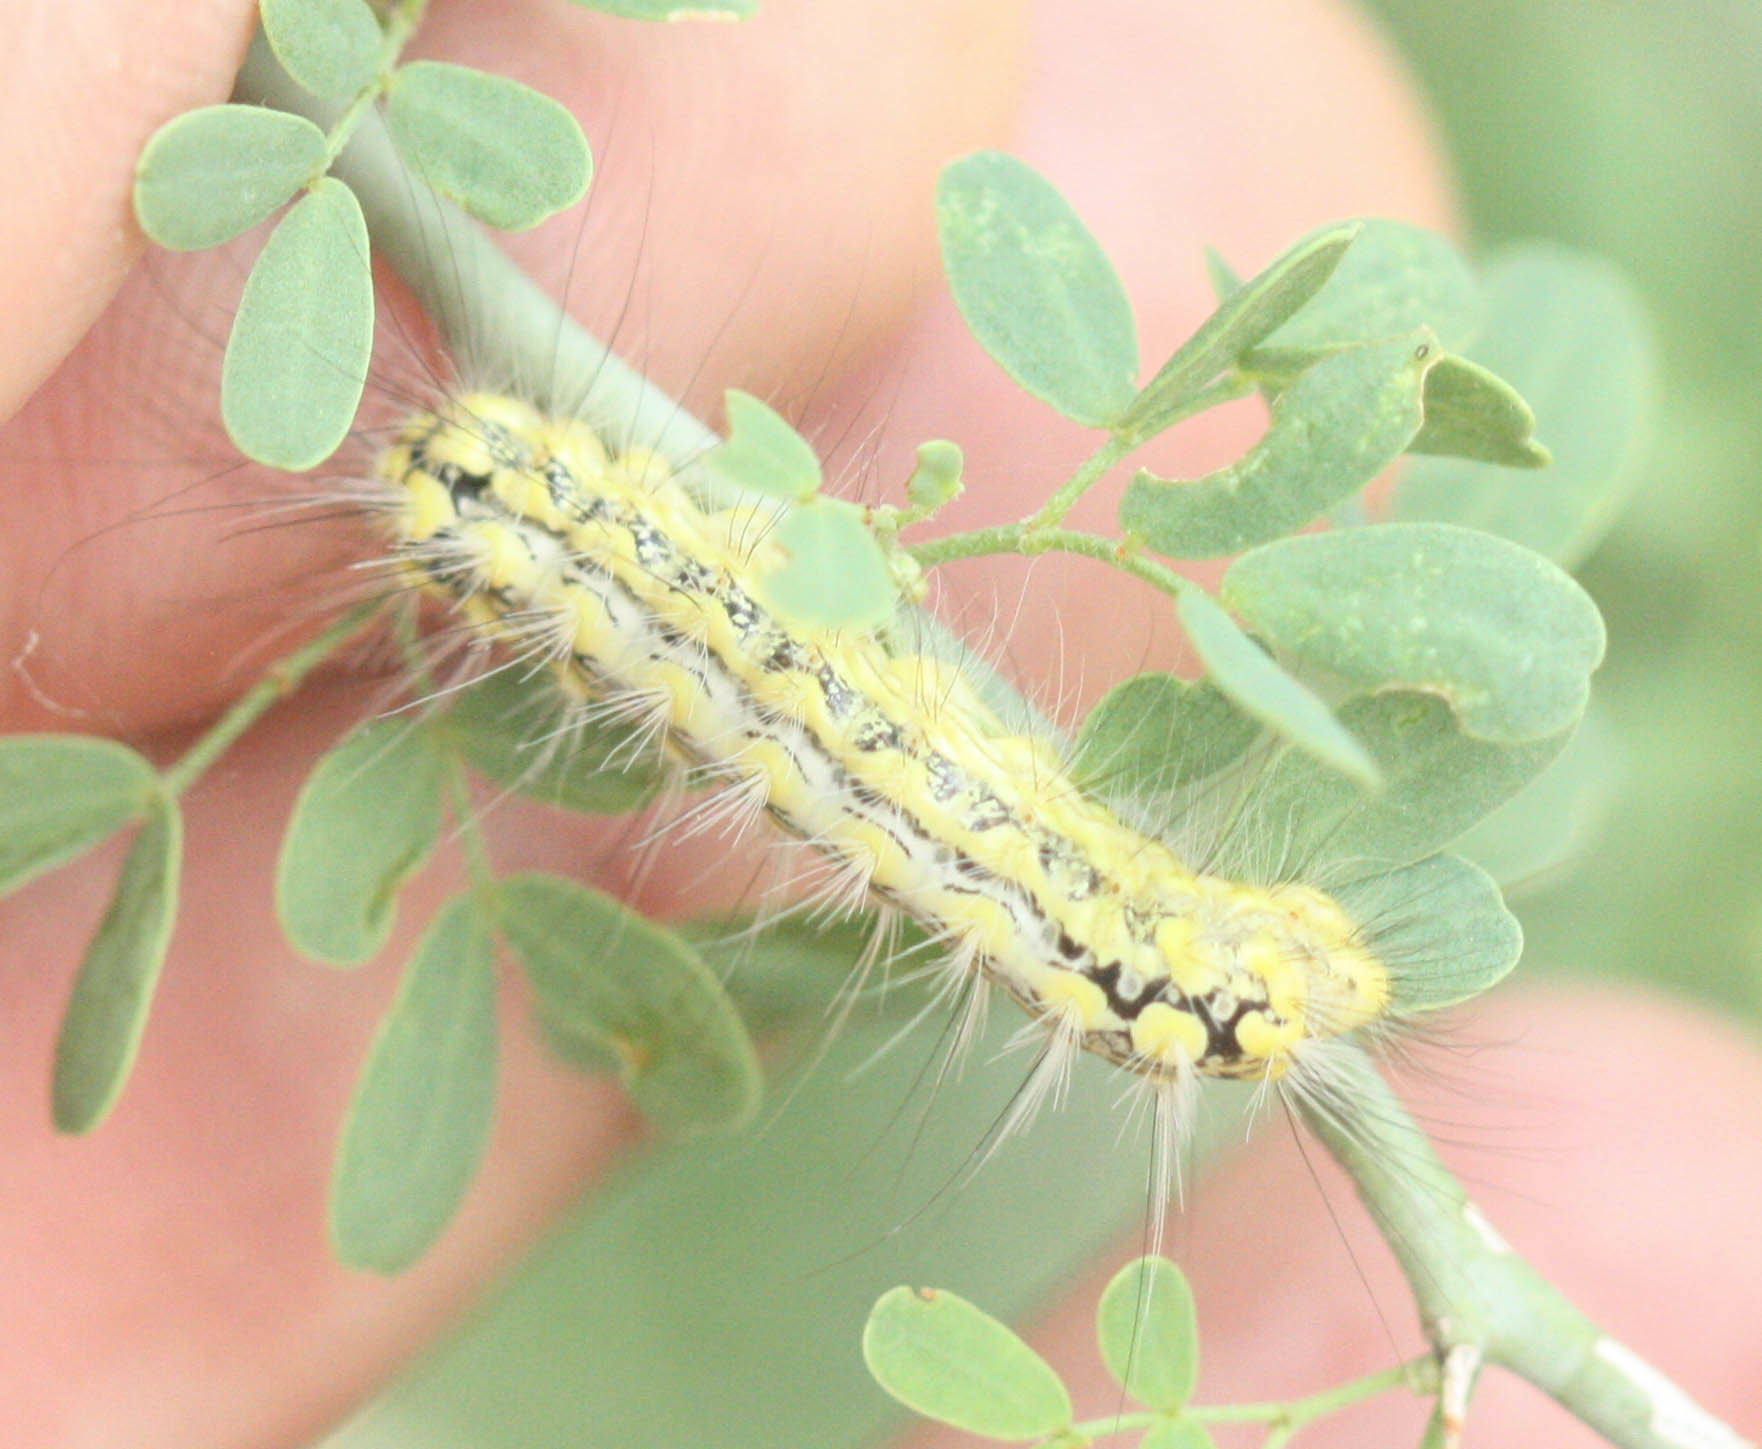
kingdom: Animalia
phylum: Arthropoda
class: Insecta
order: Lepidoptera
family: Megalopygidae
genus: Norape
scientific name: Norape tener
